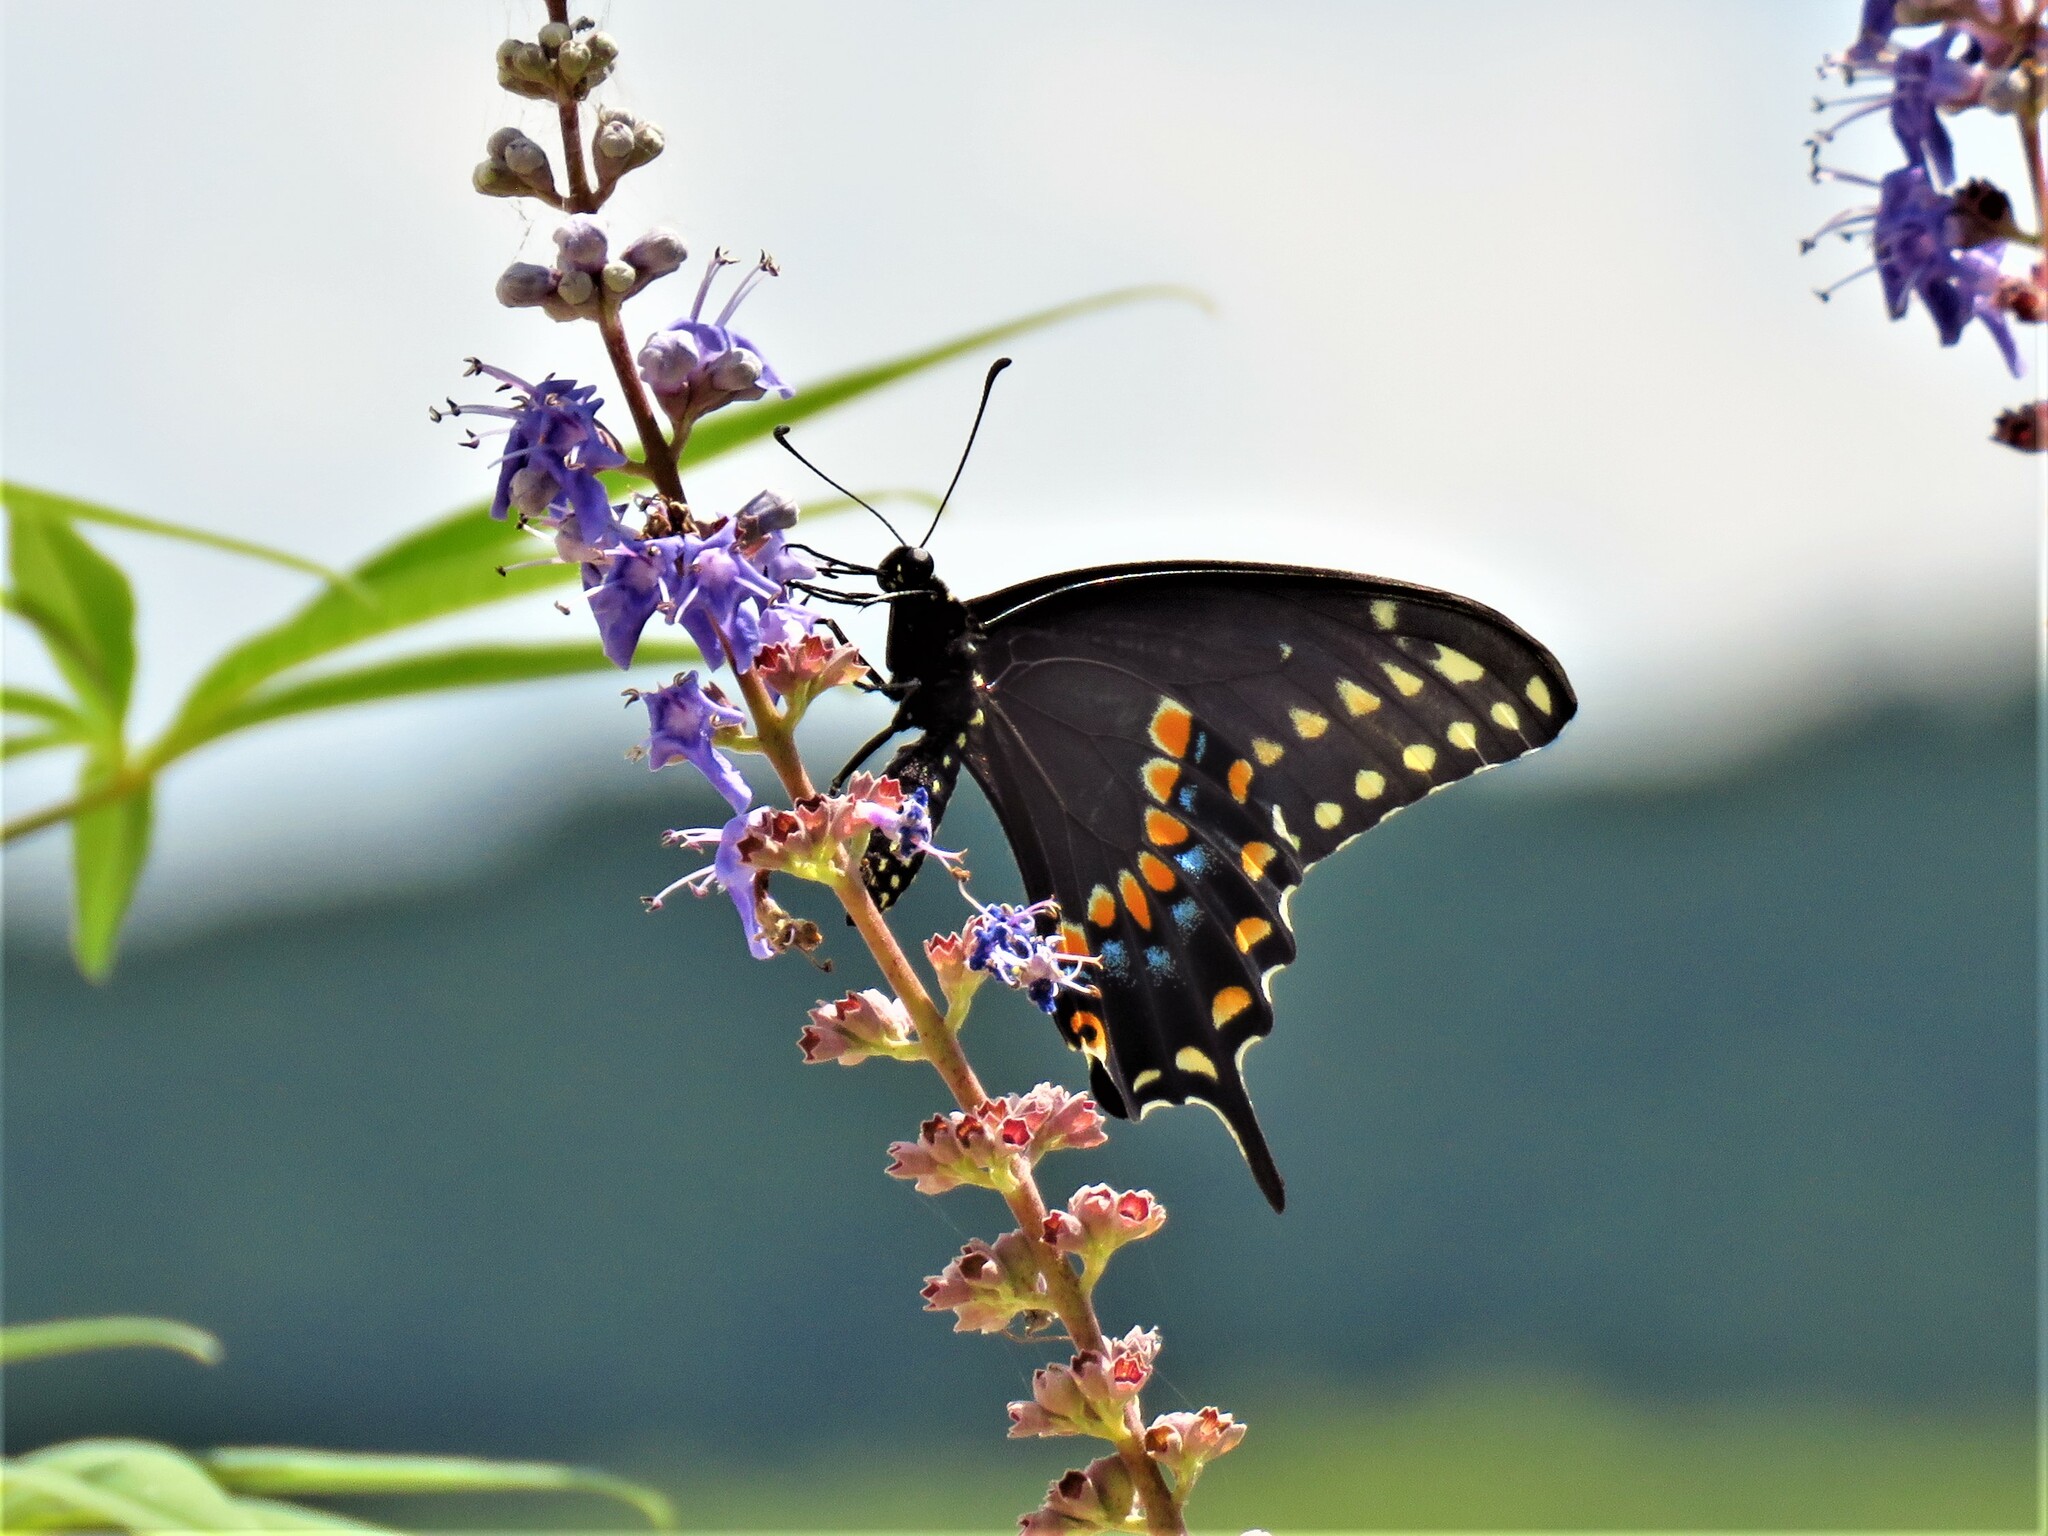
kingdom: Animalia
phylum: Arthropoda
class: Insecta
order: Lepidoptera
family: Papilionidae
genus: Papilio
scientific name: Papilio polyxenes
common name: Black swallowtail
